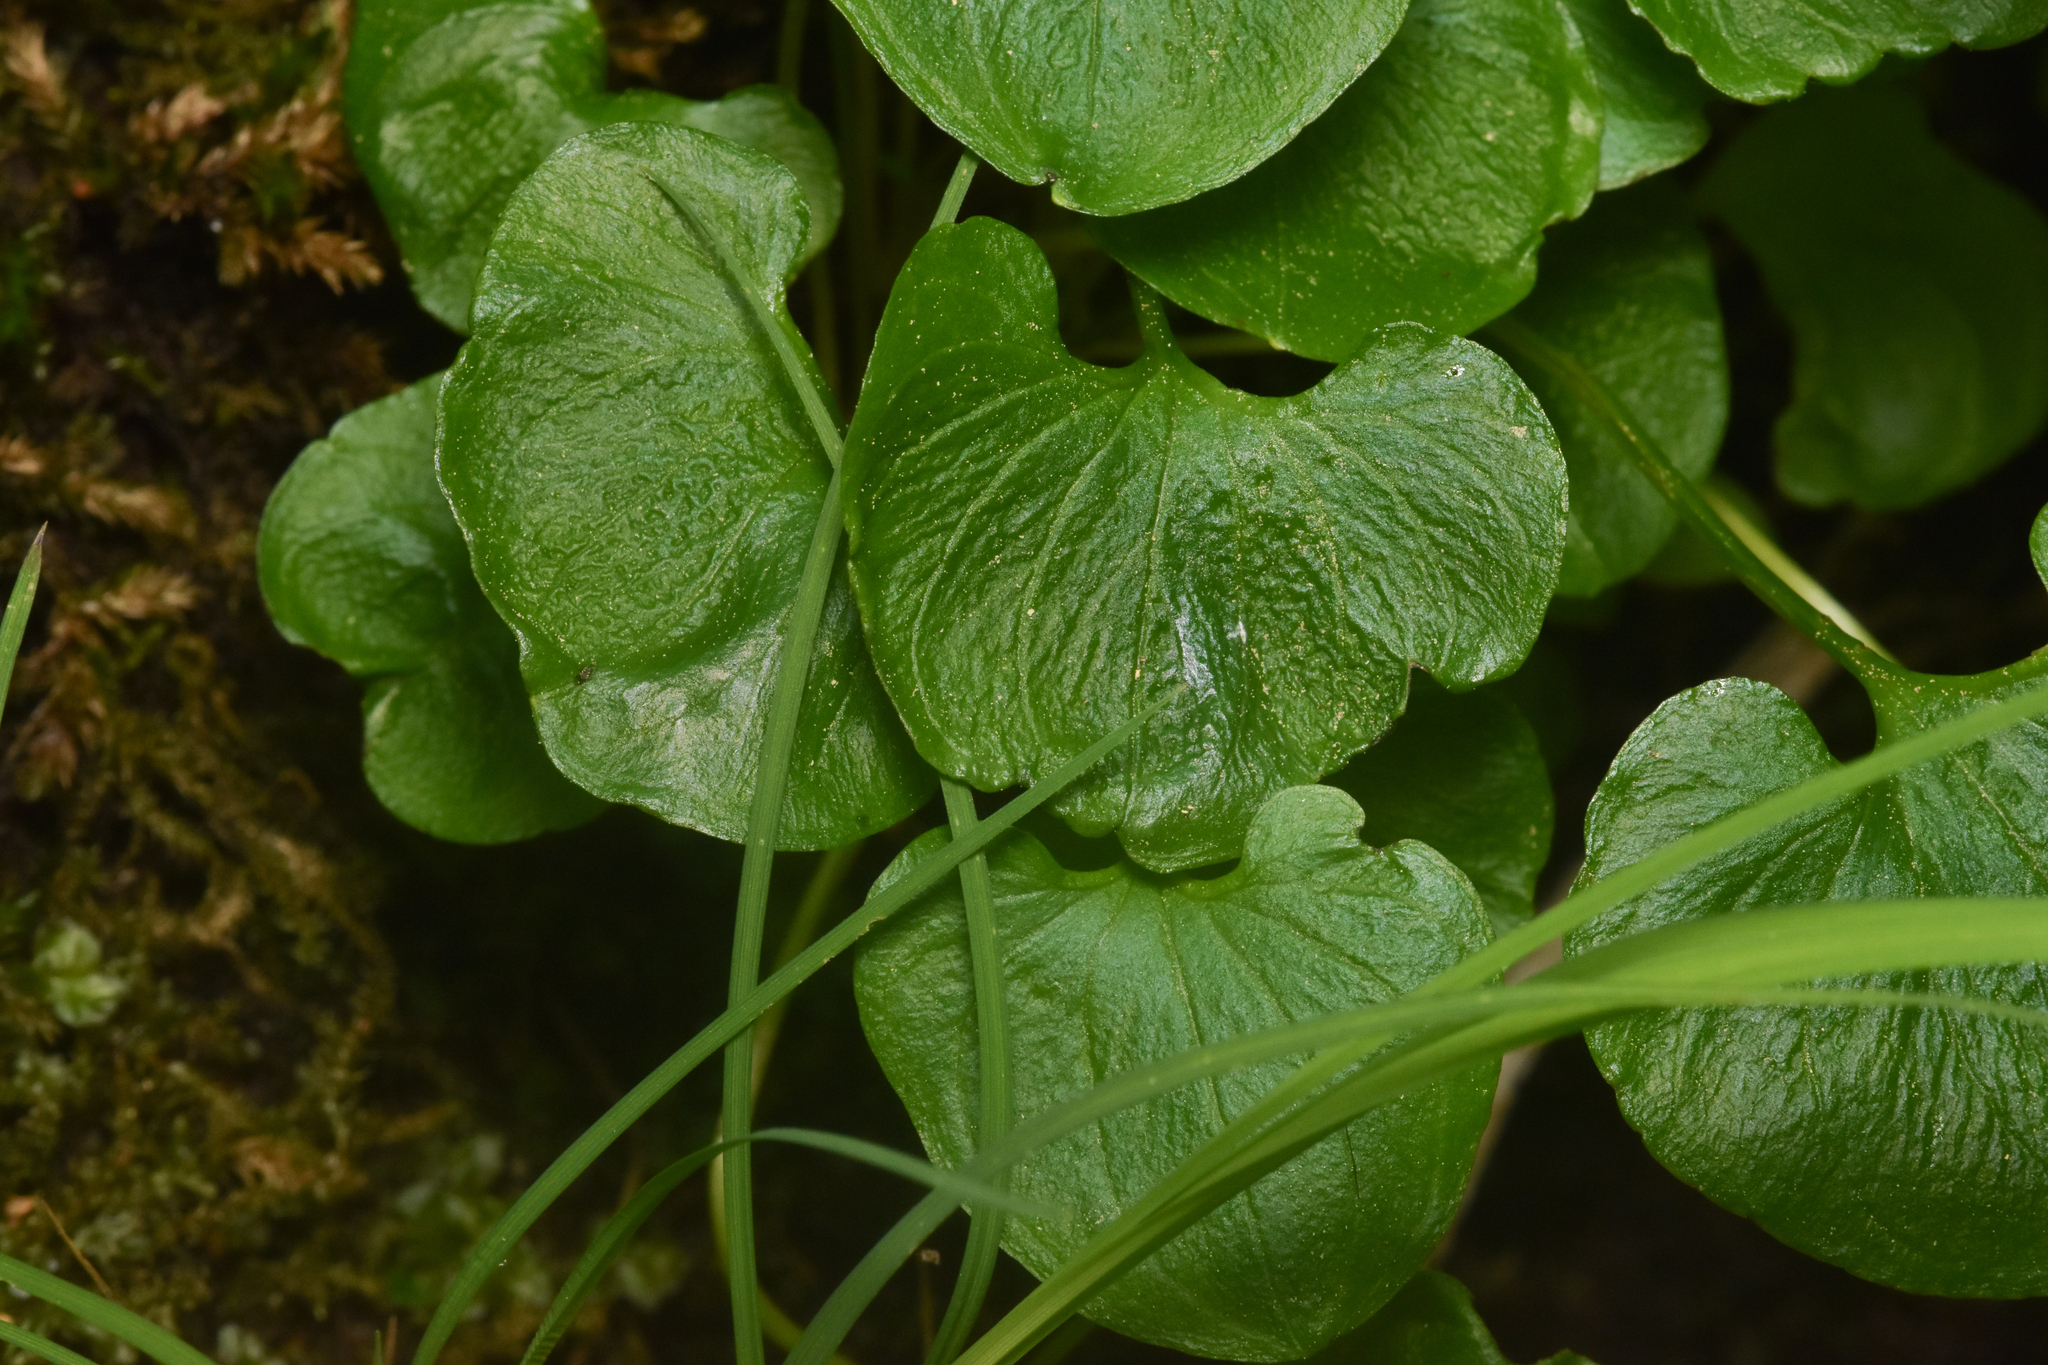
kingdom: Plantae
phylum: Tracheophyta
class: Magnoliopsida
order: Celastrales
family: Parnassiaceae
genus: Parnassia
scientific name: Parnassia fimbriata
